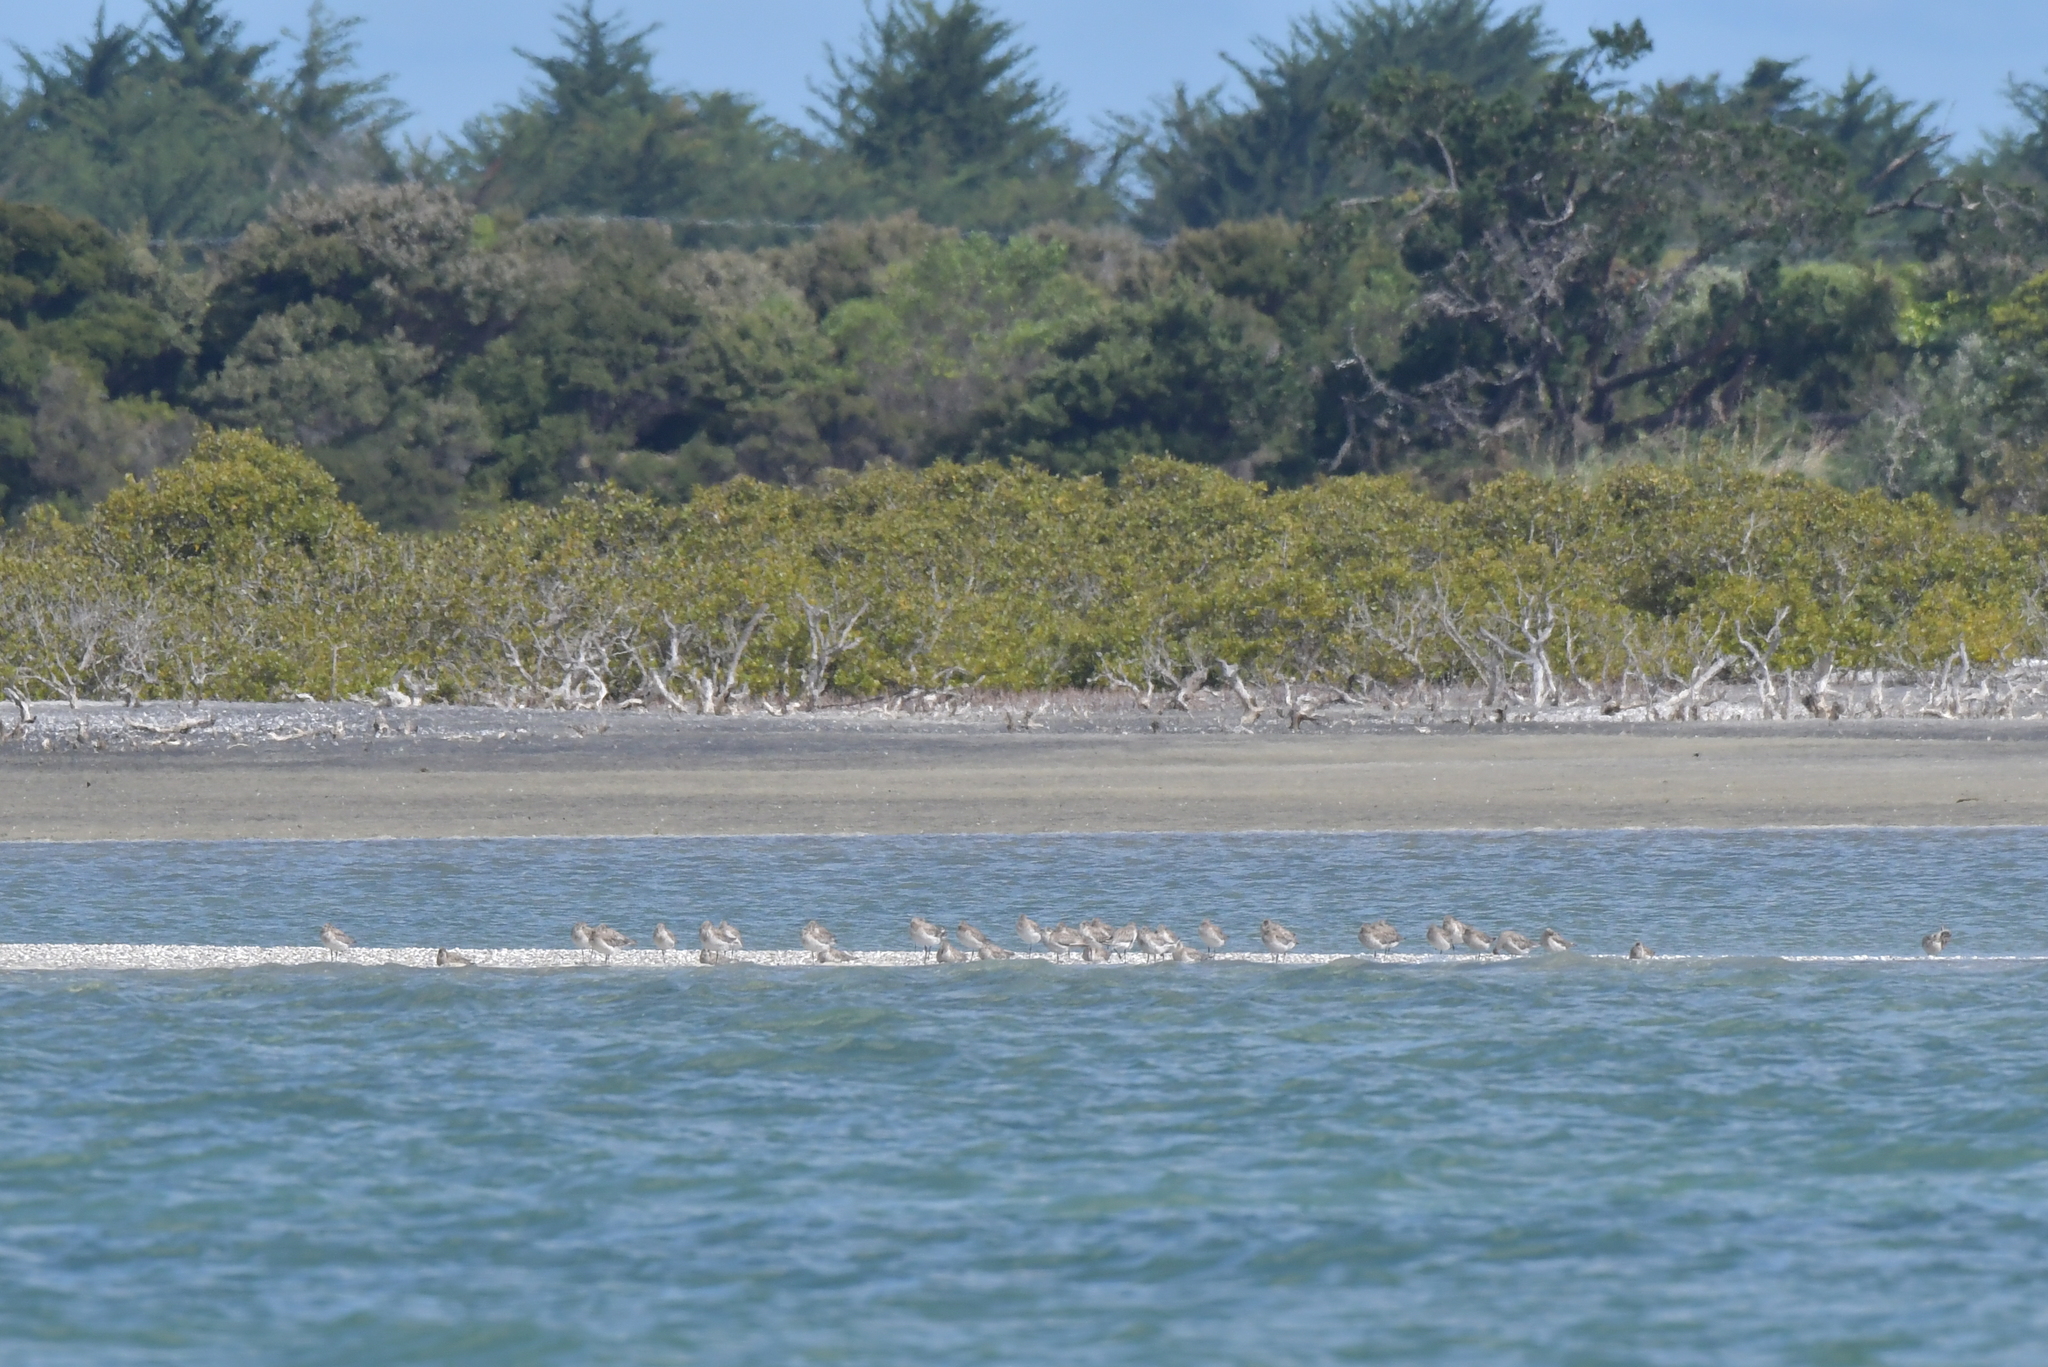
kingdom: Animalia
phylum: Chordata
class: Aves
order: Charadriiformes
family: Scolopacidae
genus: Limosa
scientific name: Limosa lapponica
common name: Bar-tailed godwit
